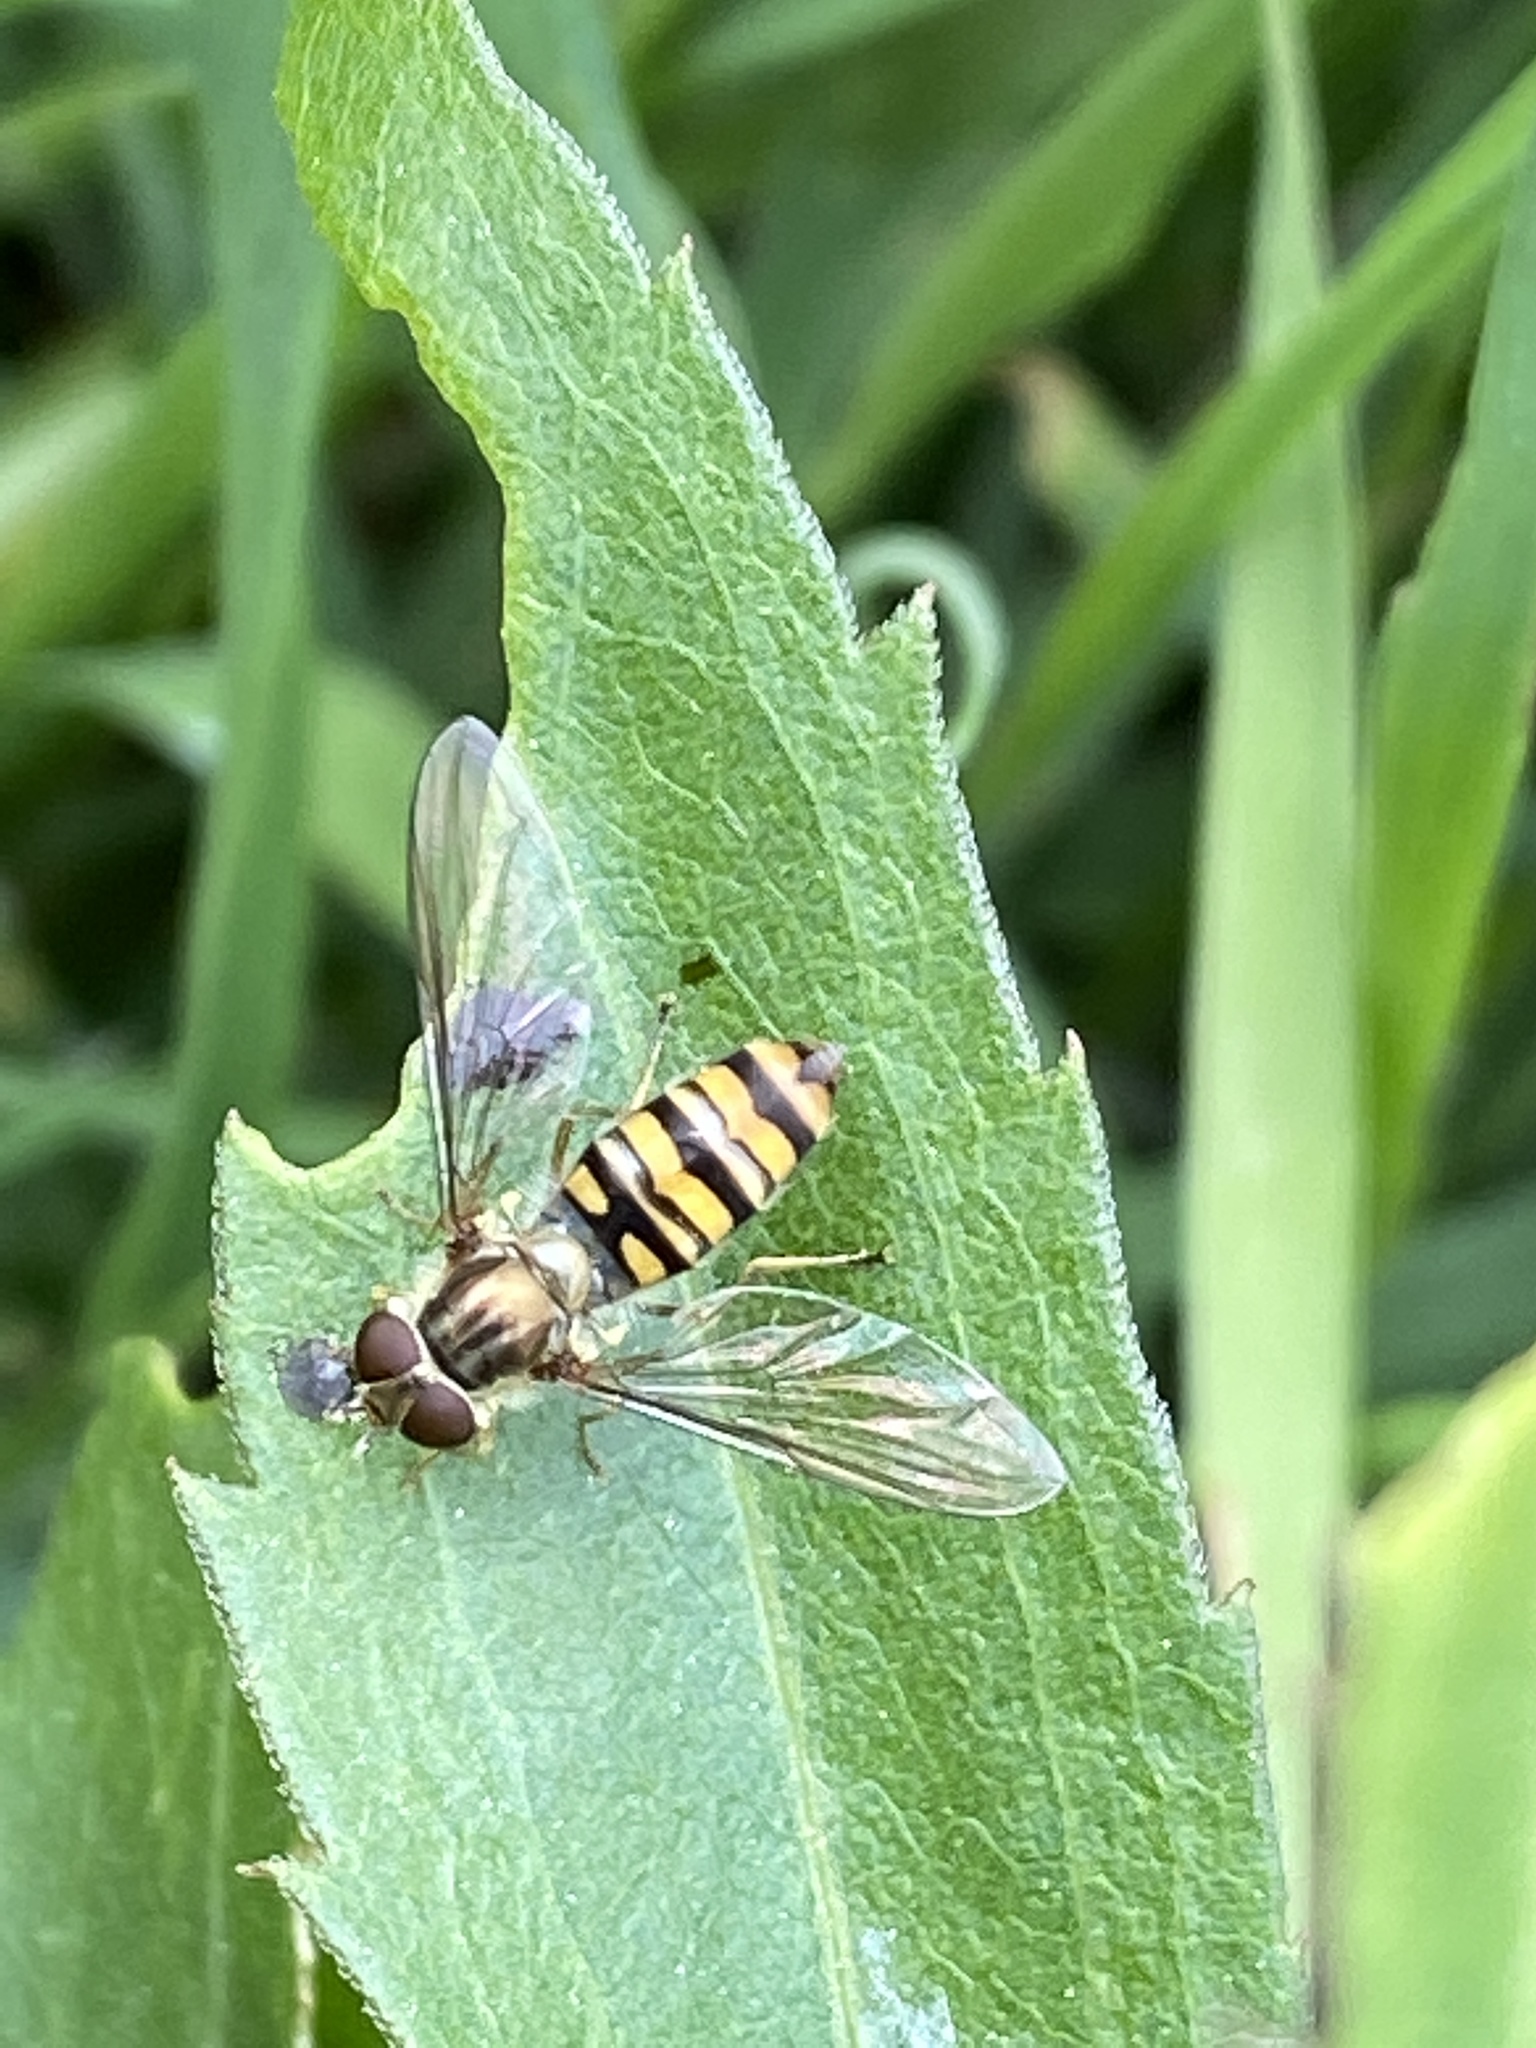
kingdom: Animalia
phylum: Arthropoda
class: Insecta
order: Diptera
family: Syrphidae
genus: Episyrphus
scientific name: Episyrphus balteatus
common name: Marmalade hoverfly
